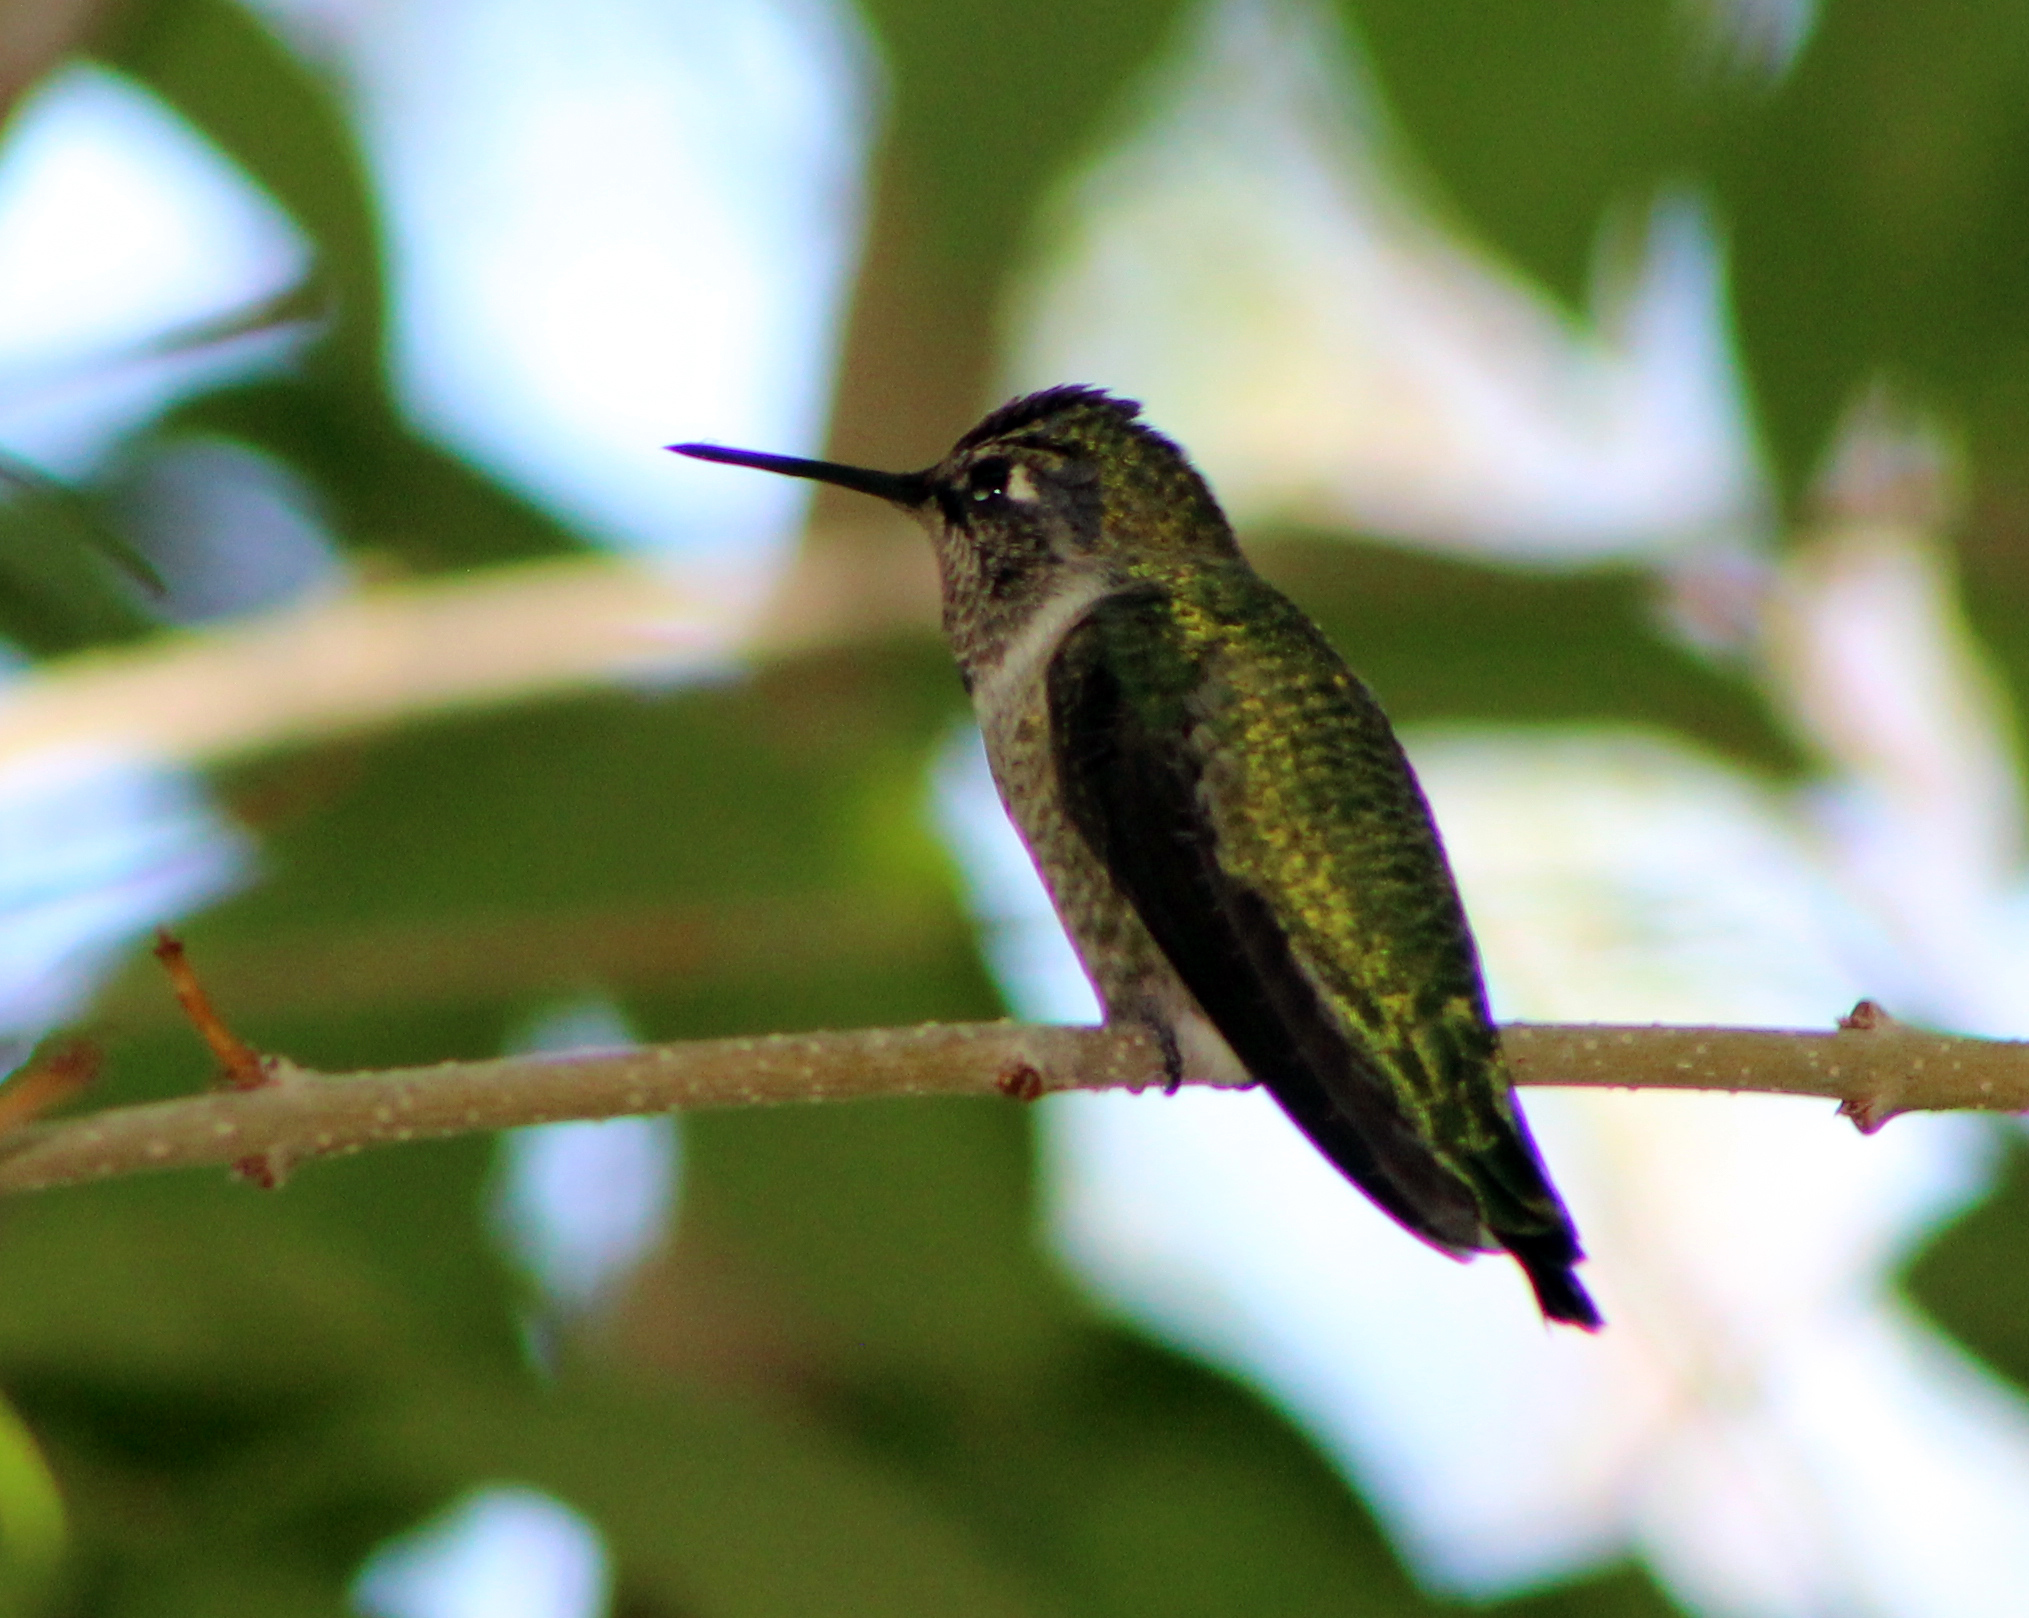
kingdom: Animalia
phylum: Chordata
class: Aves
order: Apodiformes
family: Trochilidae
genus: Calypte
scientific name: Calypte anna
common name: Anna's hummingbird
